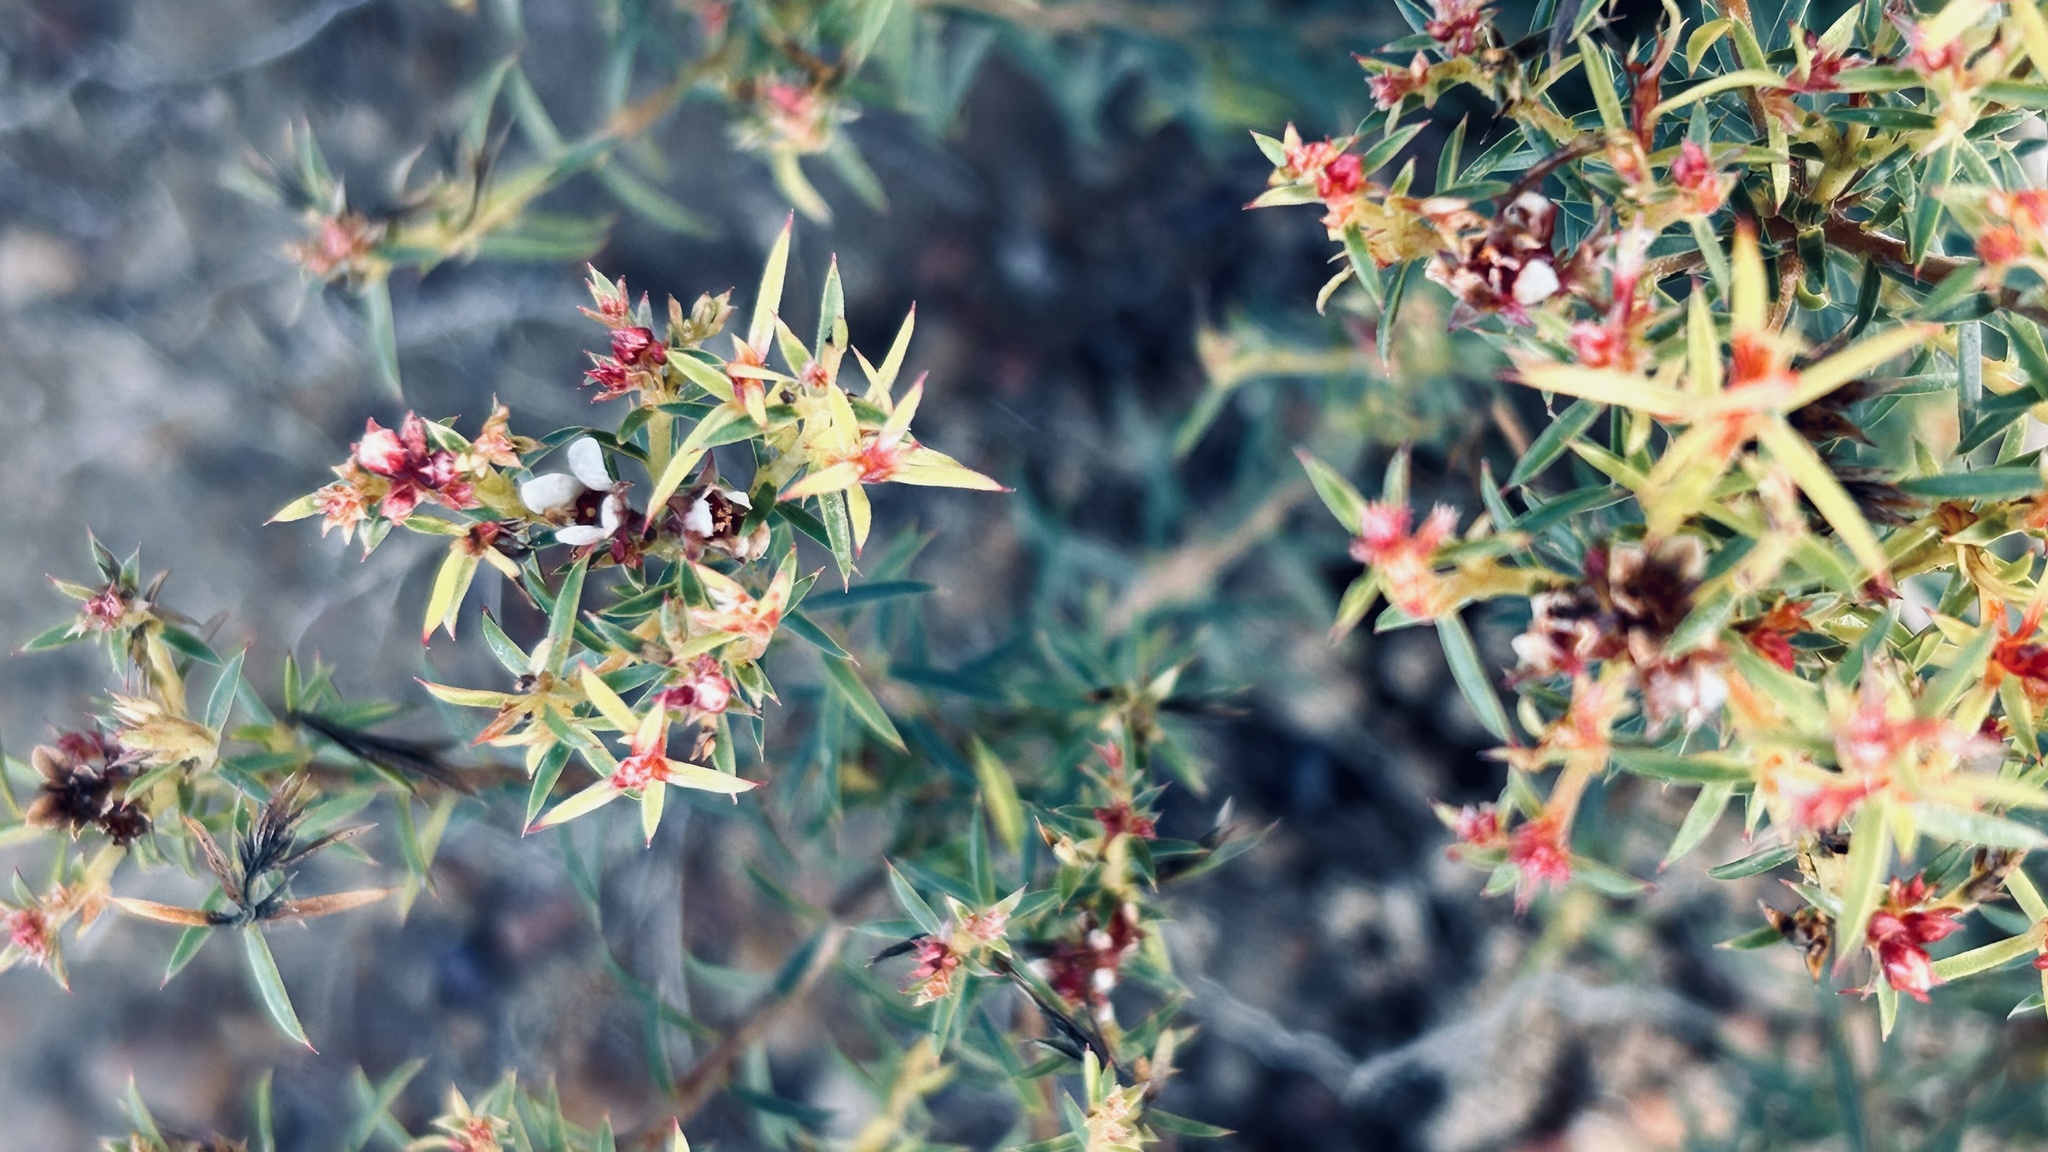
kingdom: Plantae
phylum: Tracheophyta
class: Magnoliopsida
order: Rosales
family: Rosaceae
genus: Cliffortia
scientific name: Cliffortia ruscifolia
